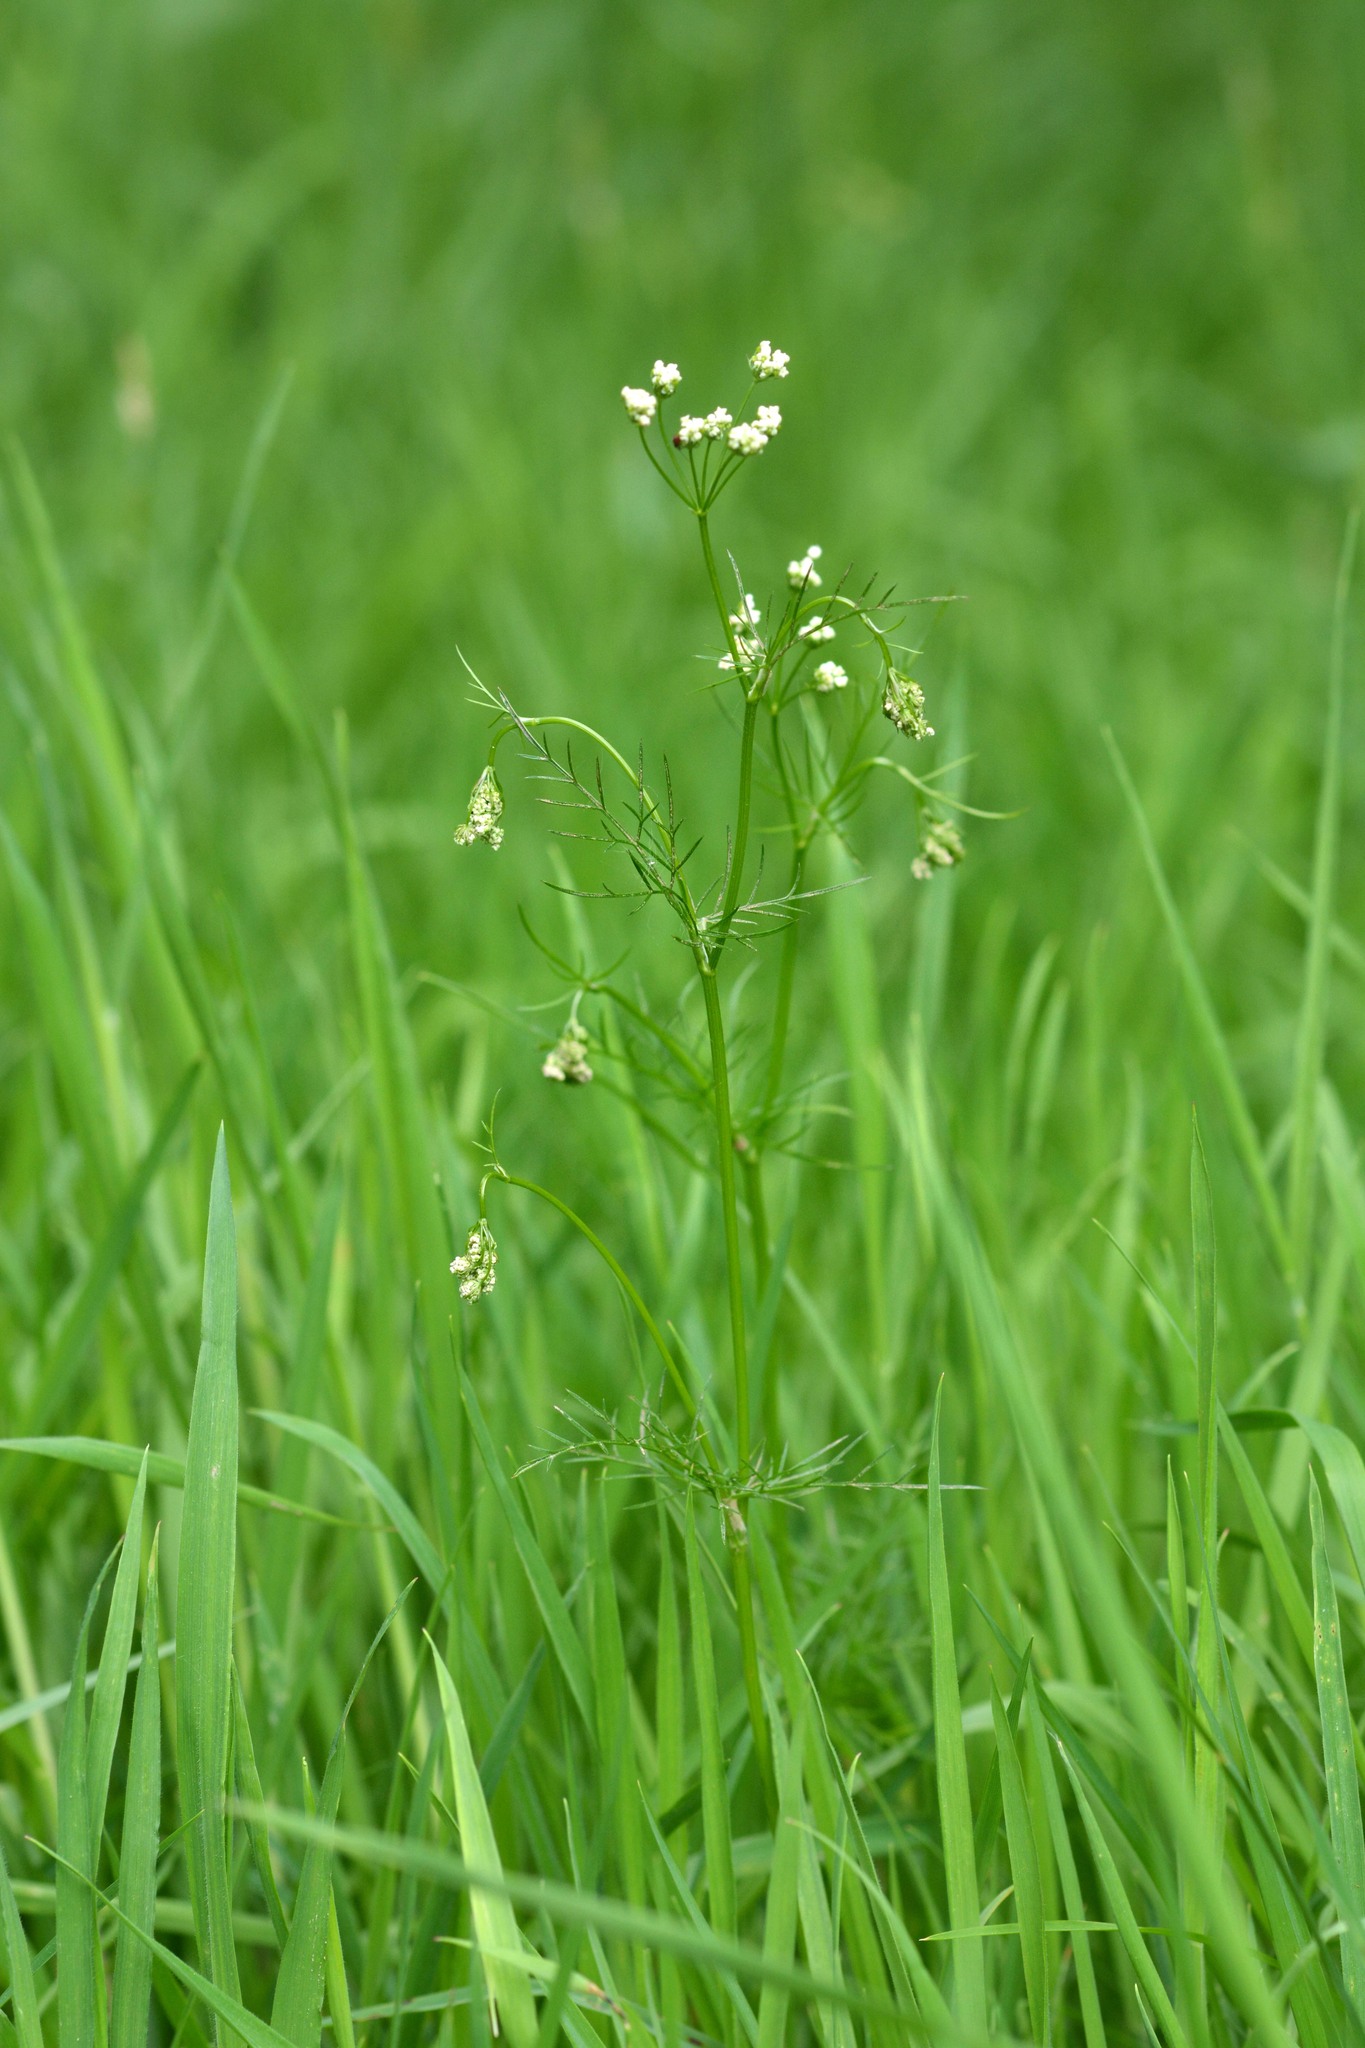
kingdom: Plantae
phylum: Tracheophyta
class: Magnoliopsida
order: Apiales
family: Apiaceae
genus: Conopodium
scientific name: Conopodium majus
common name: Pignut
